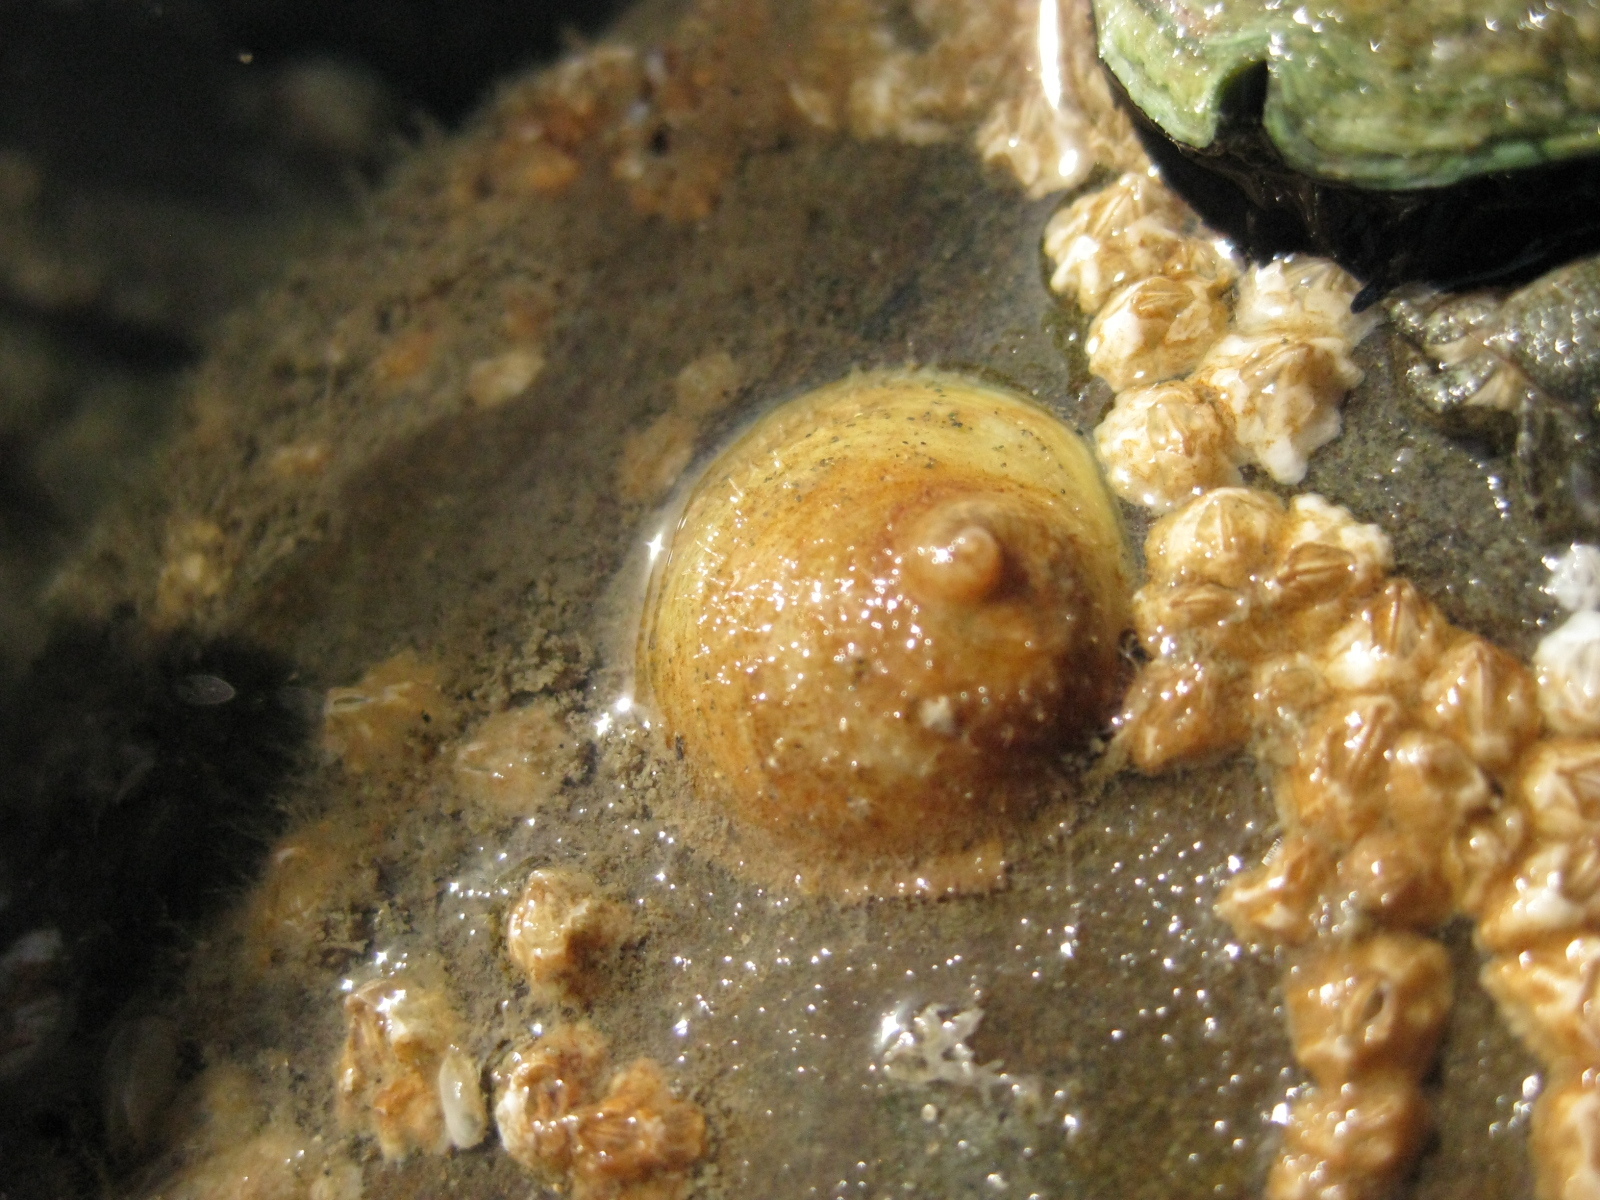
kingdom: Animalia
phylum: Mollusca
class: Gastropoda
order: Littorinimorpha
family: Calyptraeidae
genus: Sigapatella
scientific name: Sigapatella novaezelandiae
